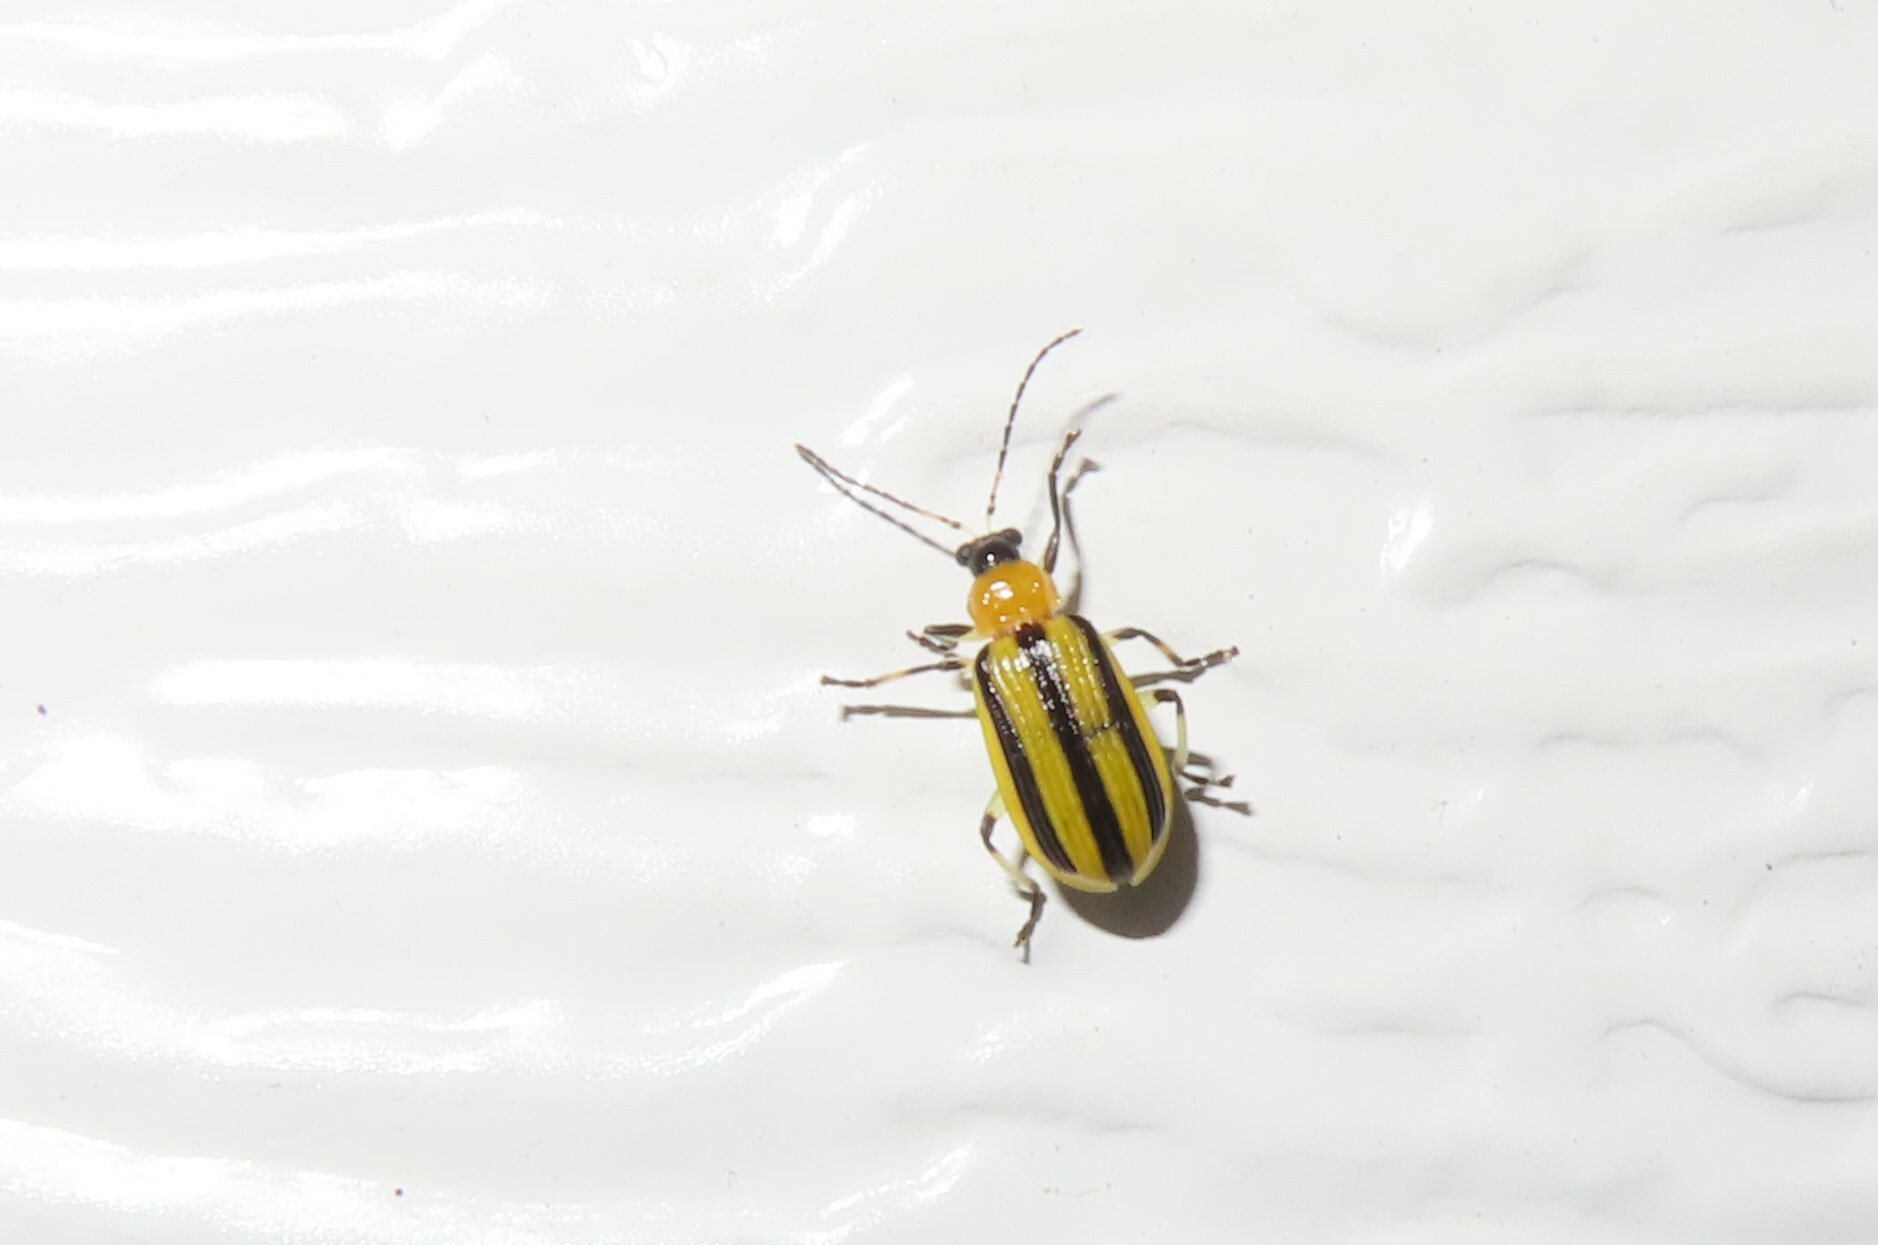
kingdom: Animalia
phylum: Arthropoda
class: Insecta
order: Coleoptera
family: Chrysomelidae
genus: Acalymma
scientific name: Acalymma vittatum
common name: Striped cucumber beetle
